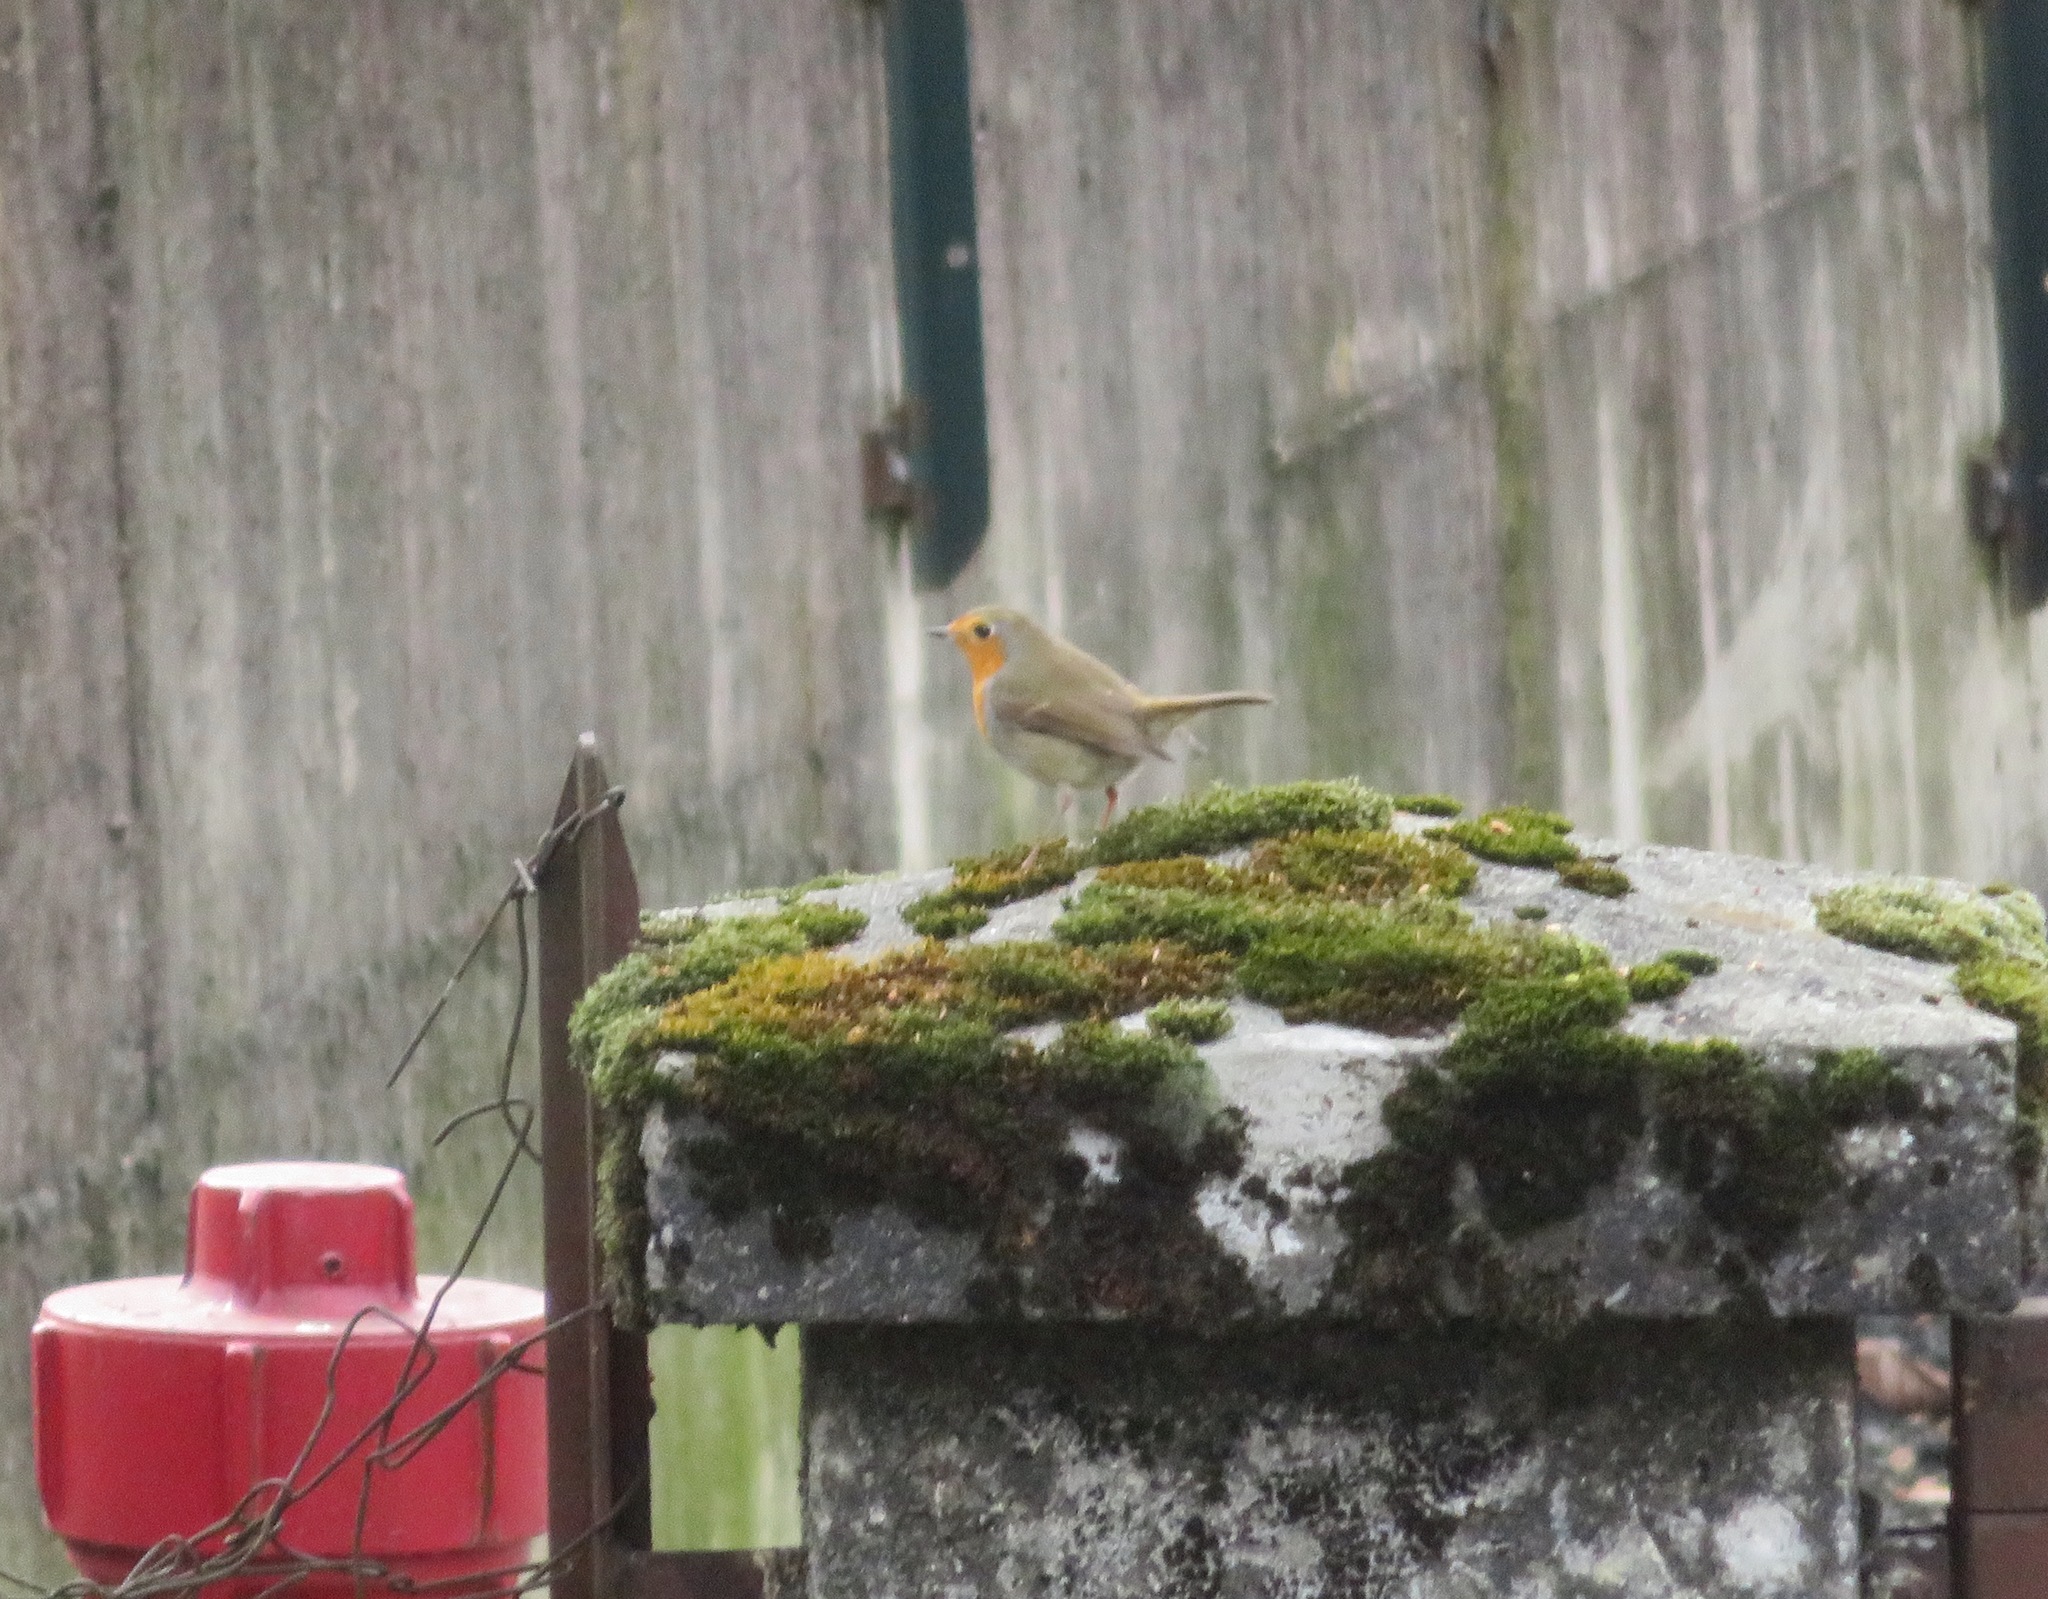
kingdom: Animalia
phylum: Chordata
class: Aves
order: Passeriformes
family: Muscicapidae
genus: Erithacus
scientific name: Erithacus rubecula
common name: European robin
